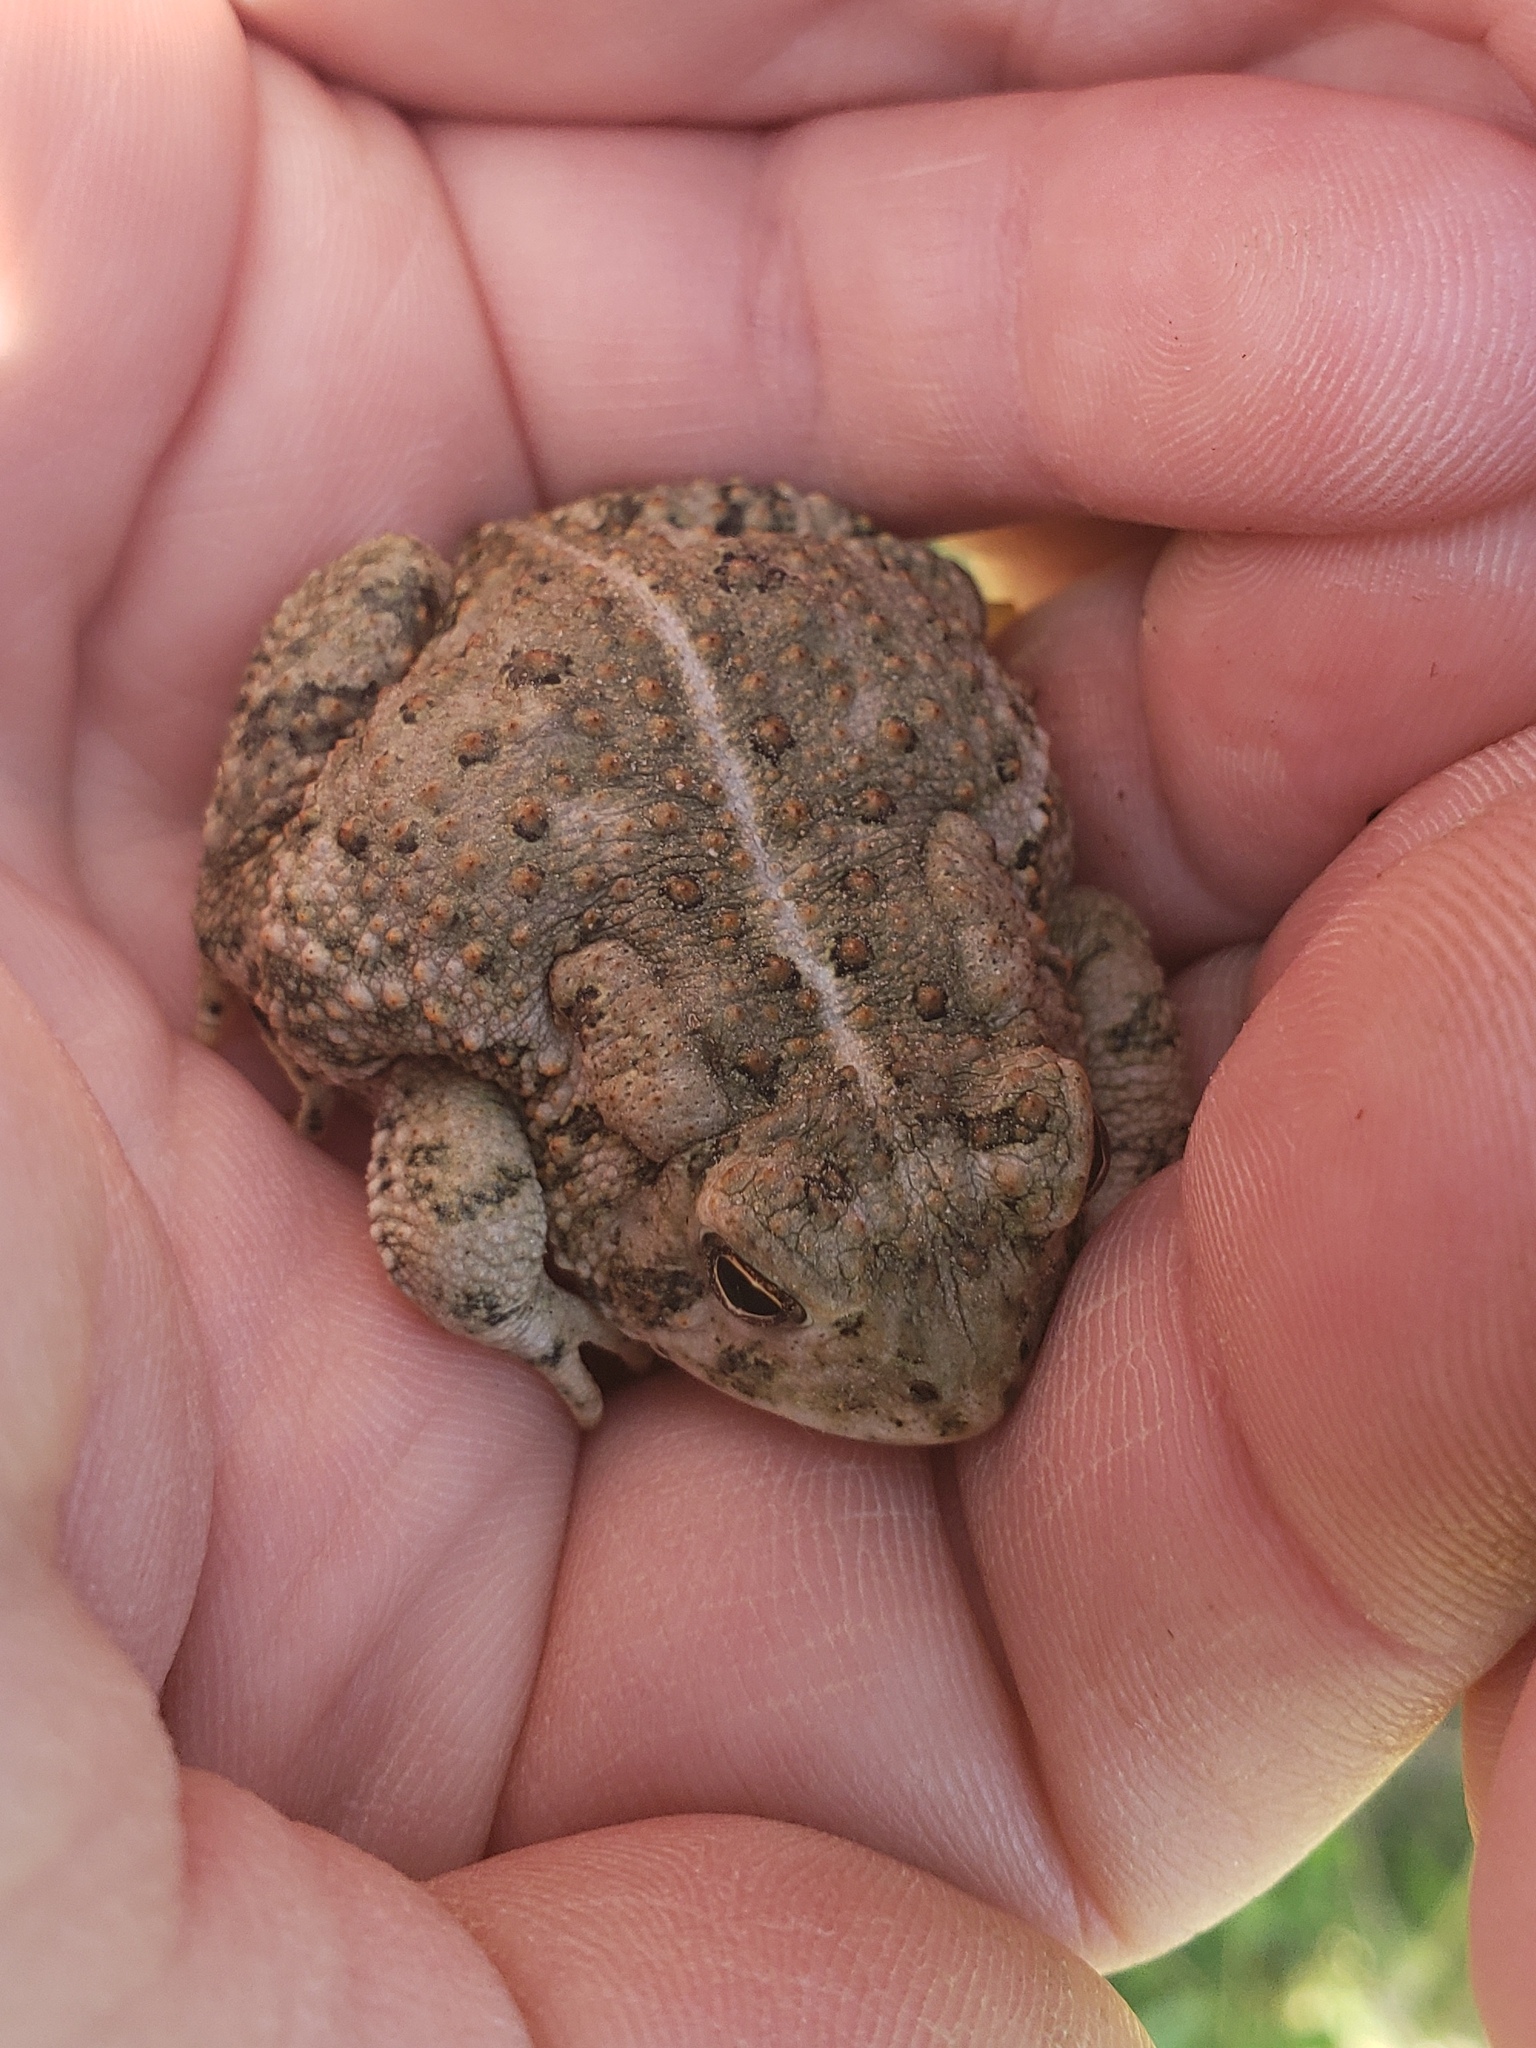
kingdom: Animalia
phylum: Chordata
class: Amphibia
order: Anura
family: Bufonidae
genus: Anaxyrus
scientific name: Anaxyrus woodhousii
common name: Woodhouse's toad
